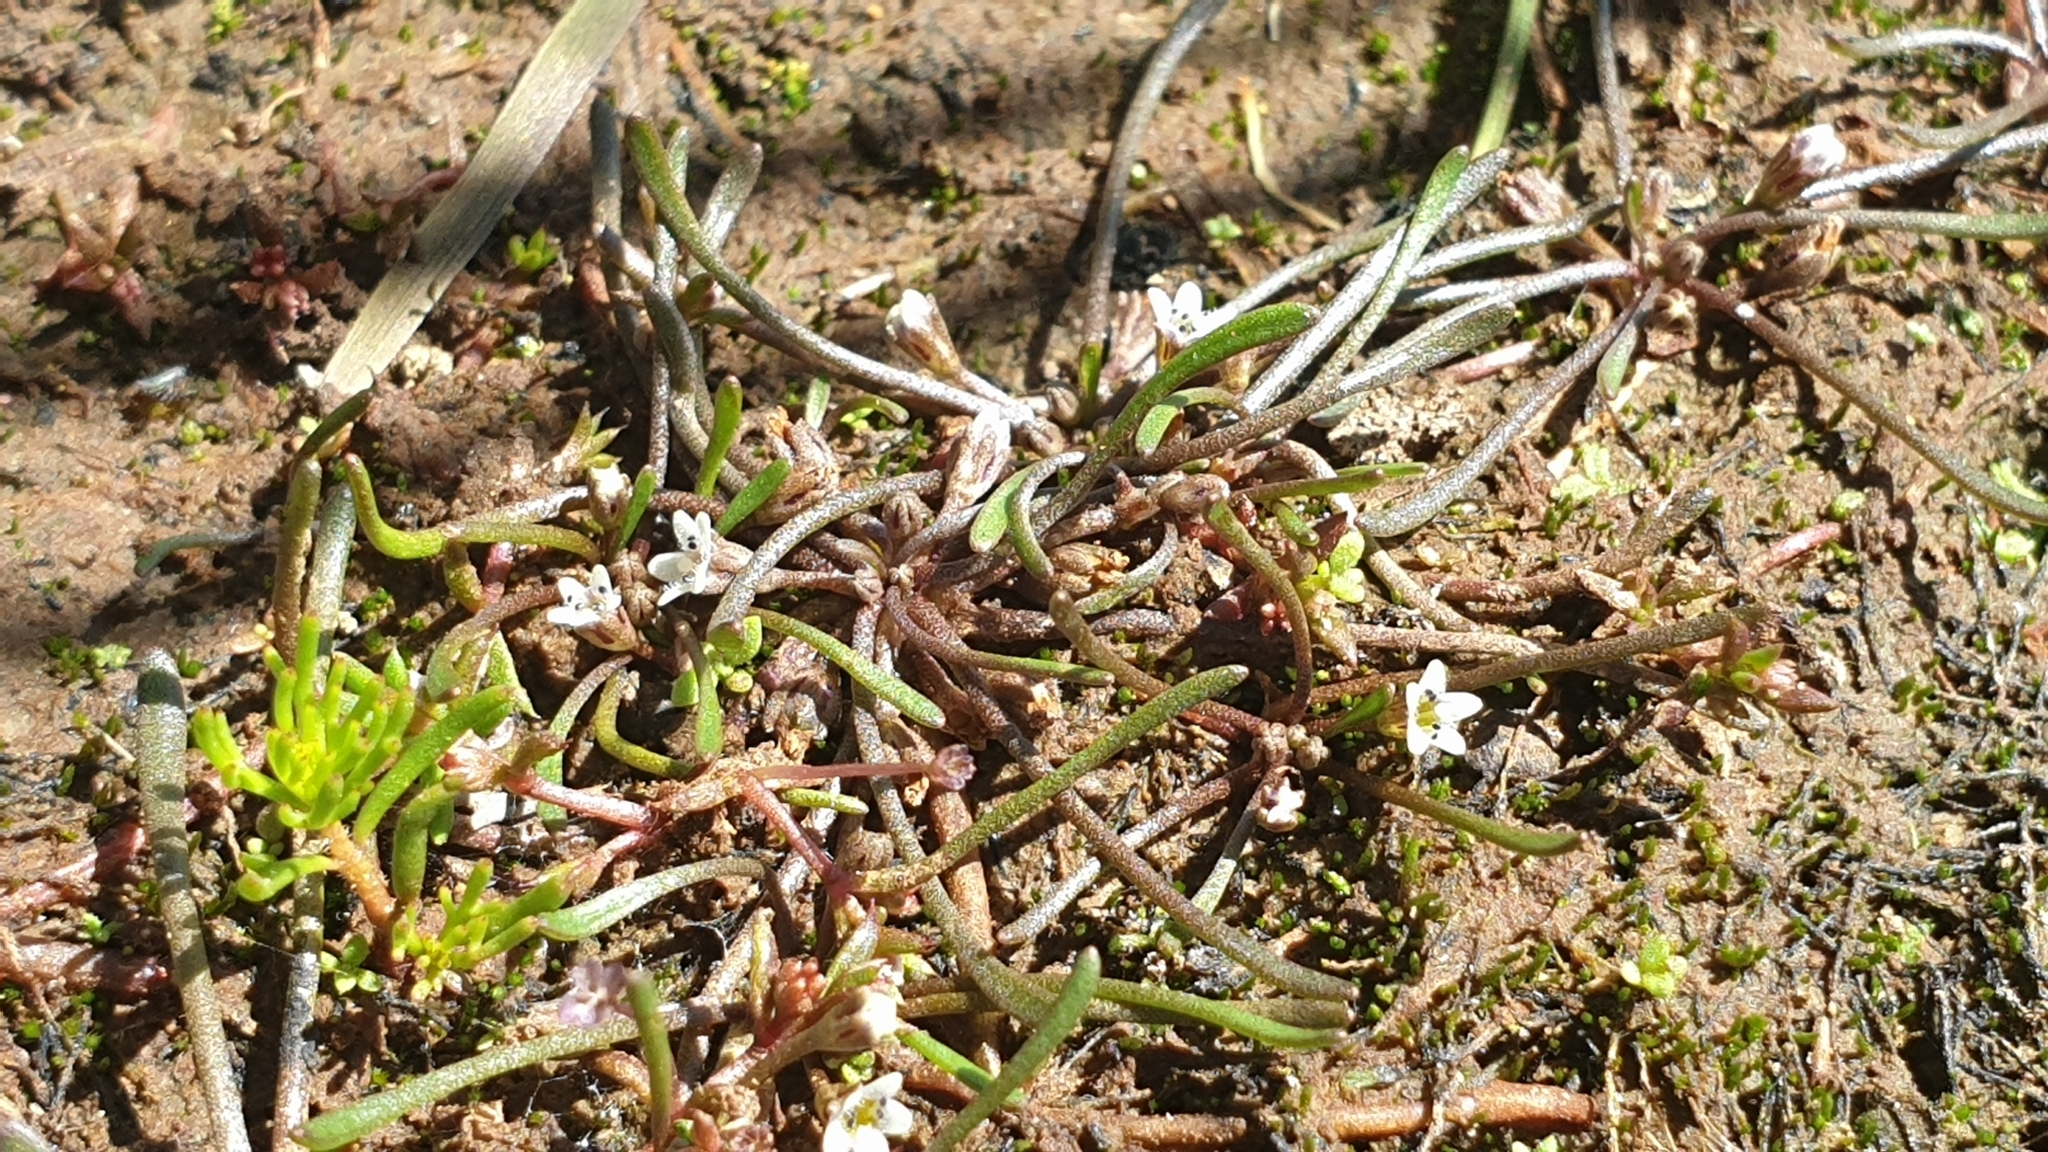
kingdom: Plantae
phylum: Tracheophyta
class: Magnoliopsida
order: Lamiales
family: Scrophulariaceae
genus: Limosella
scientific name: Limosella australis
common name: Welsh mudwort
